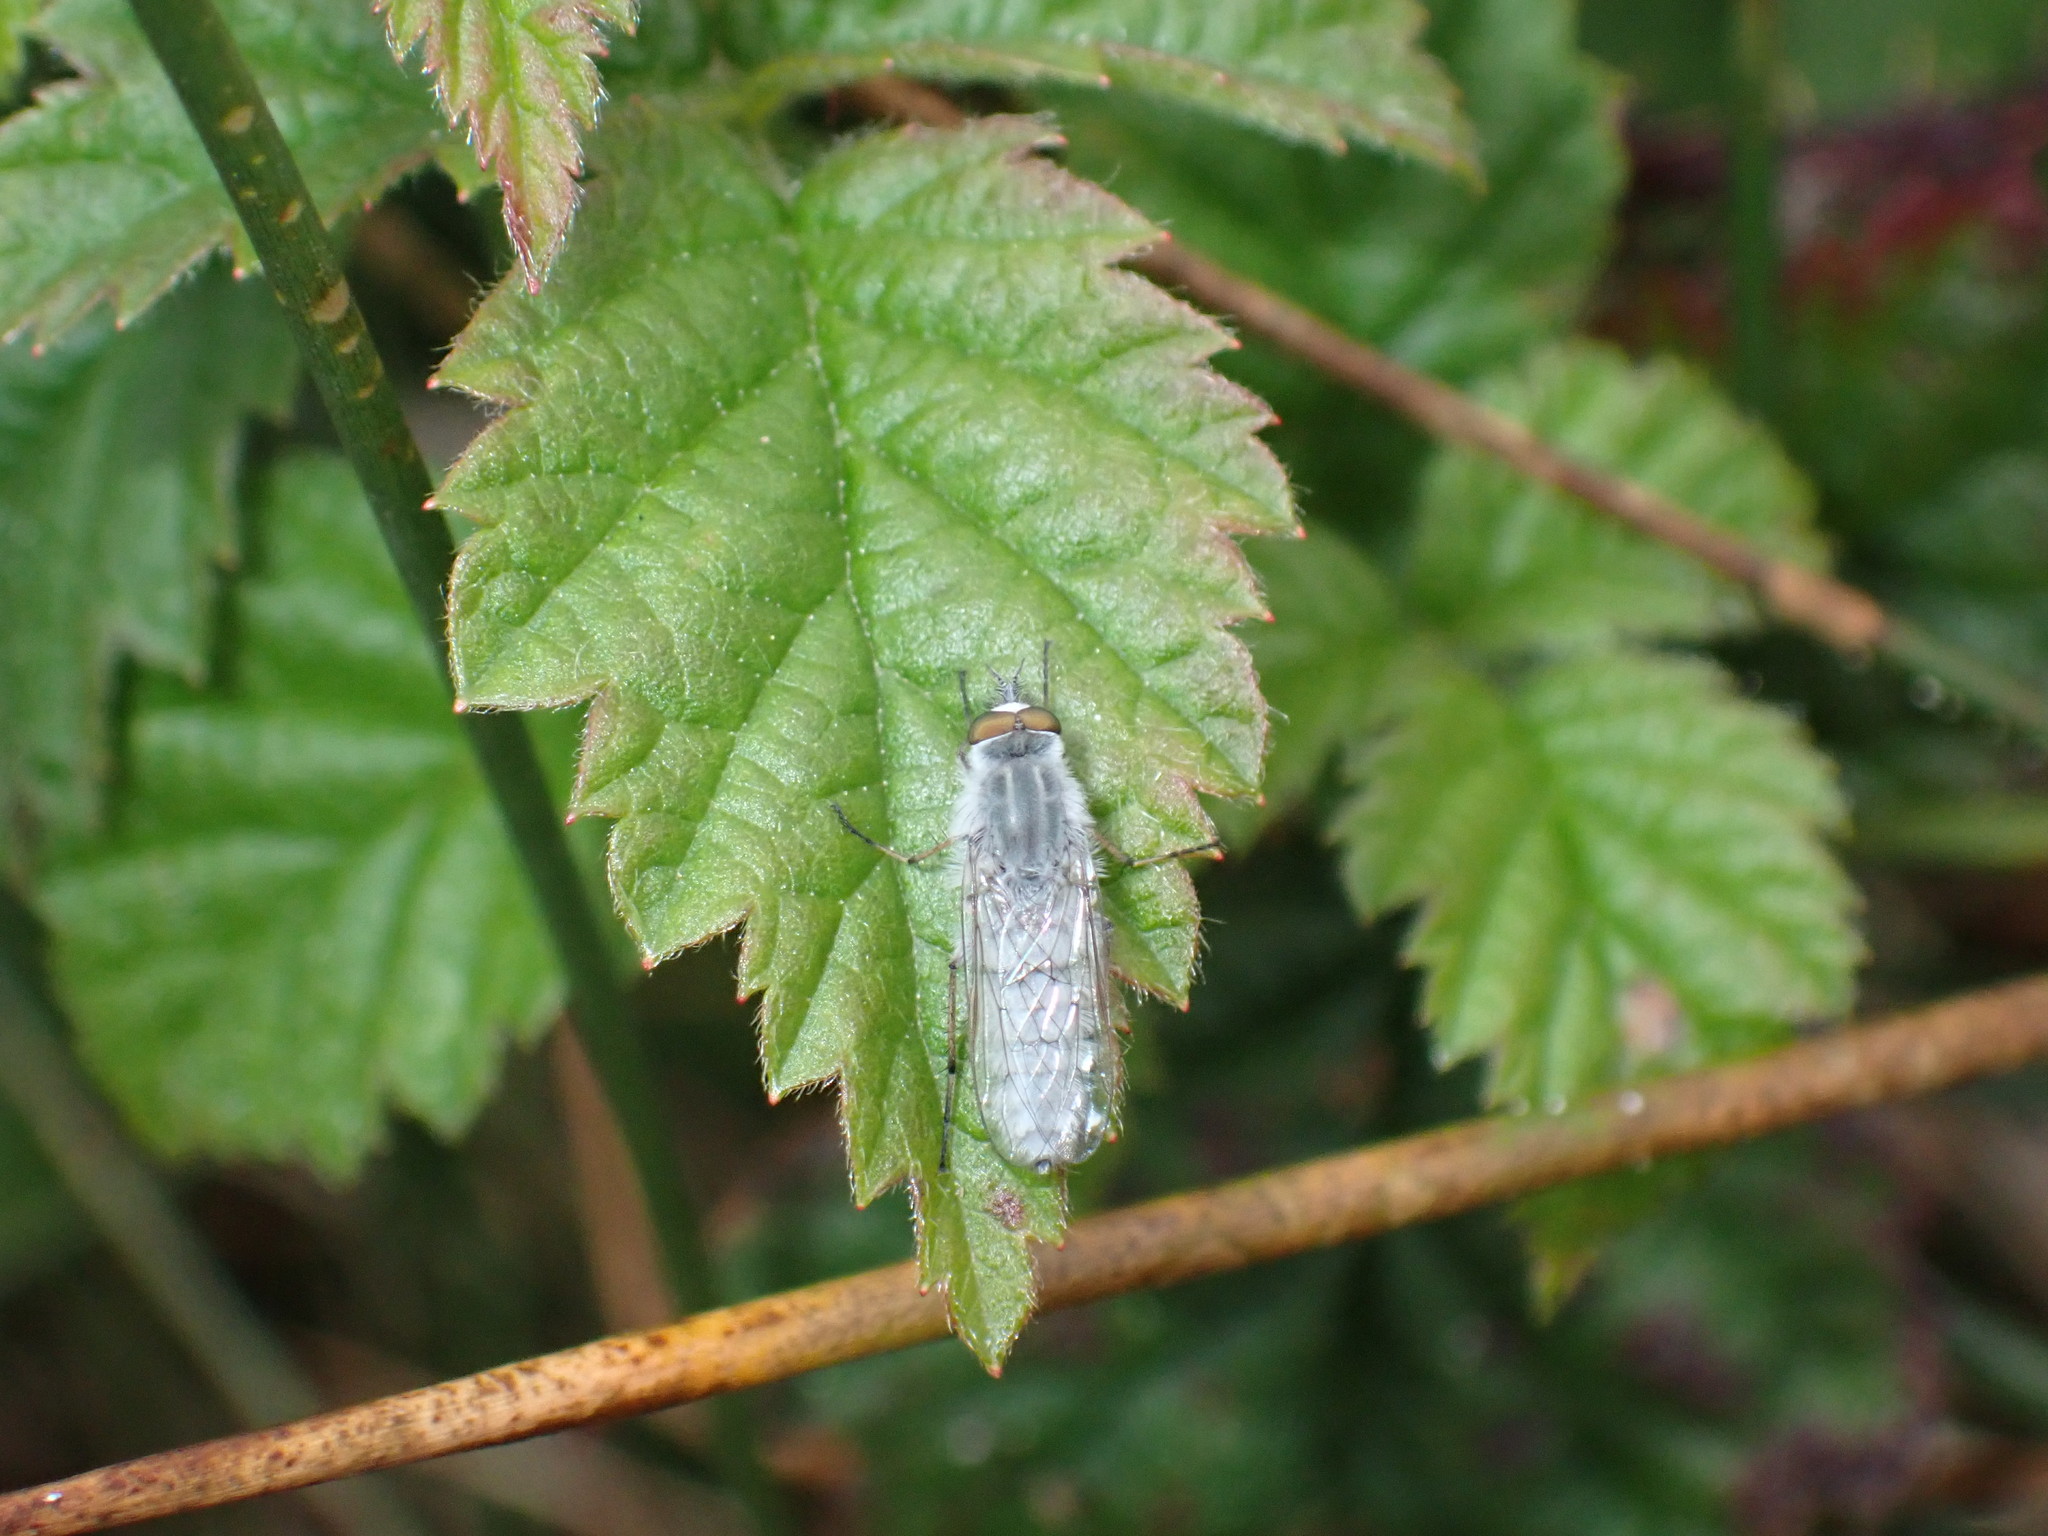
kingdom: Animalia
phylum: Arthropoda
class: Insecta
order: Diptera
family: Therevidae
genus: Spiriverpa
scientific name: Spiriverpa cinerascens
